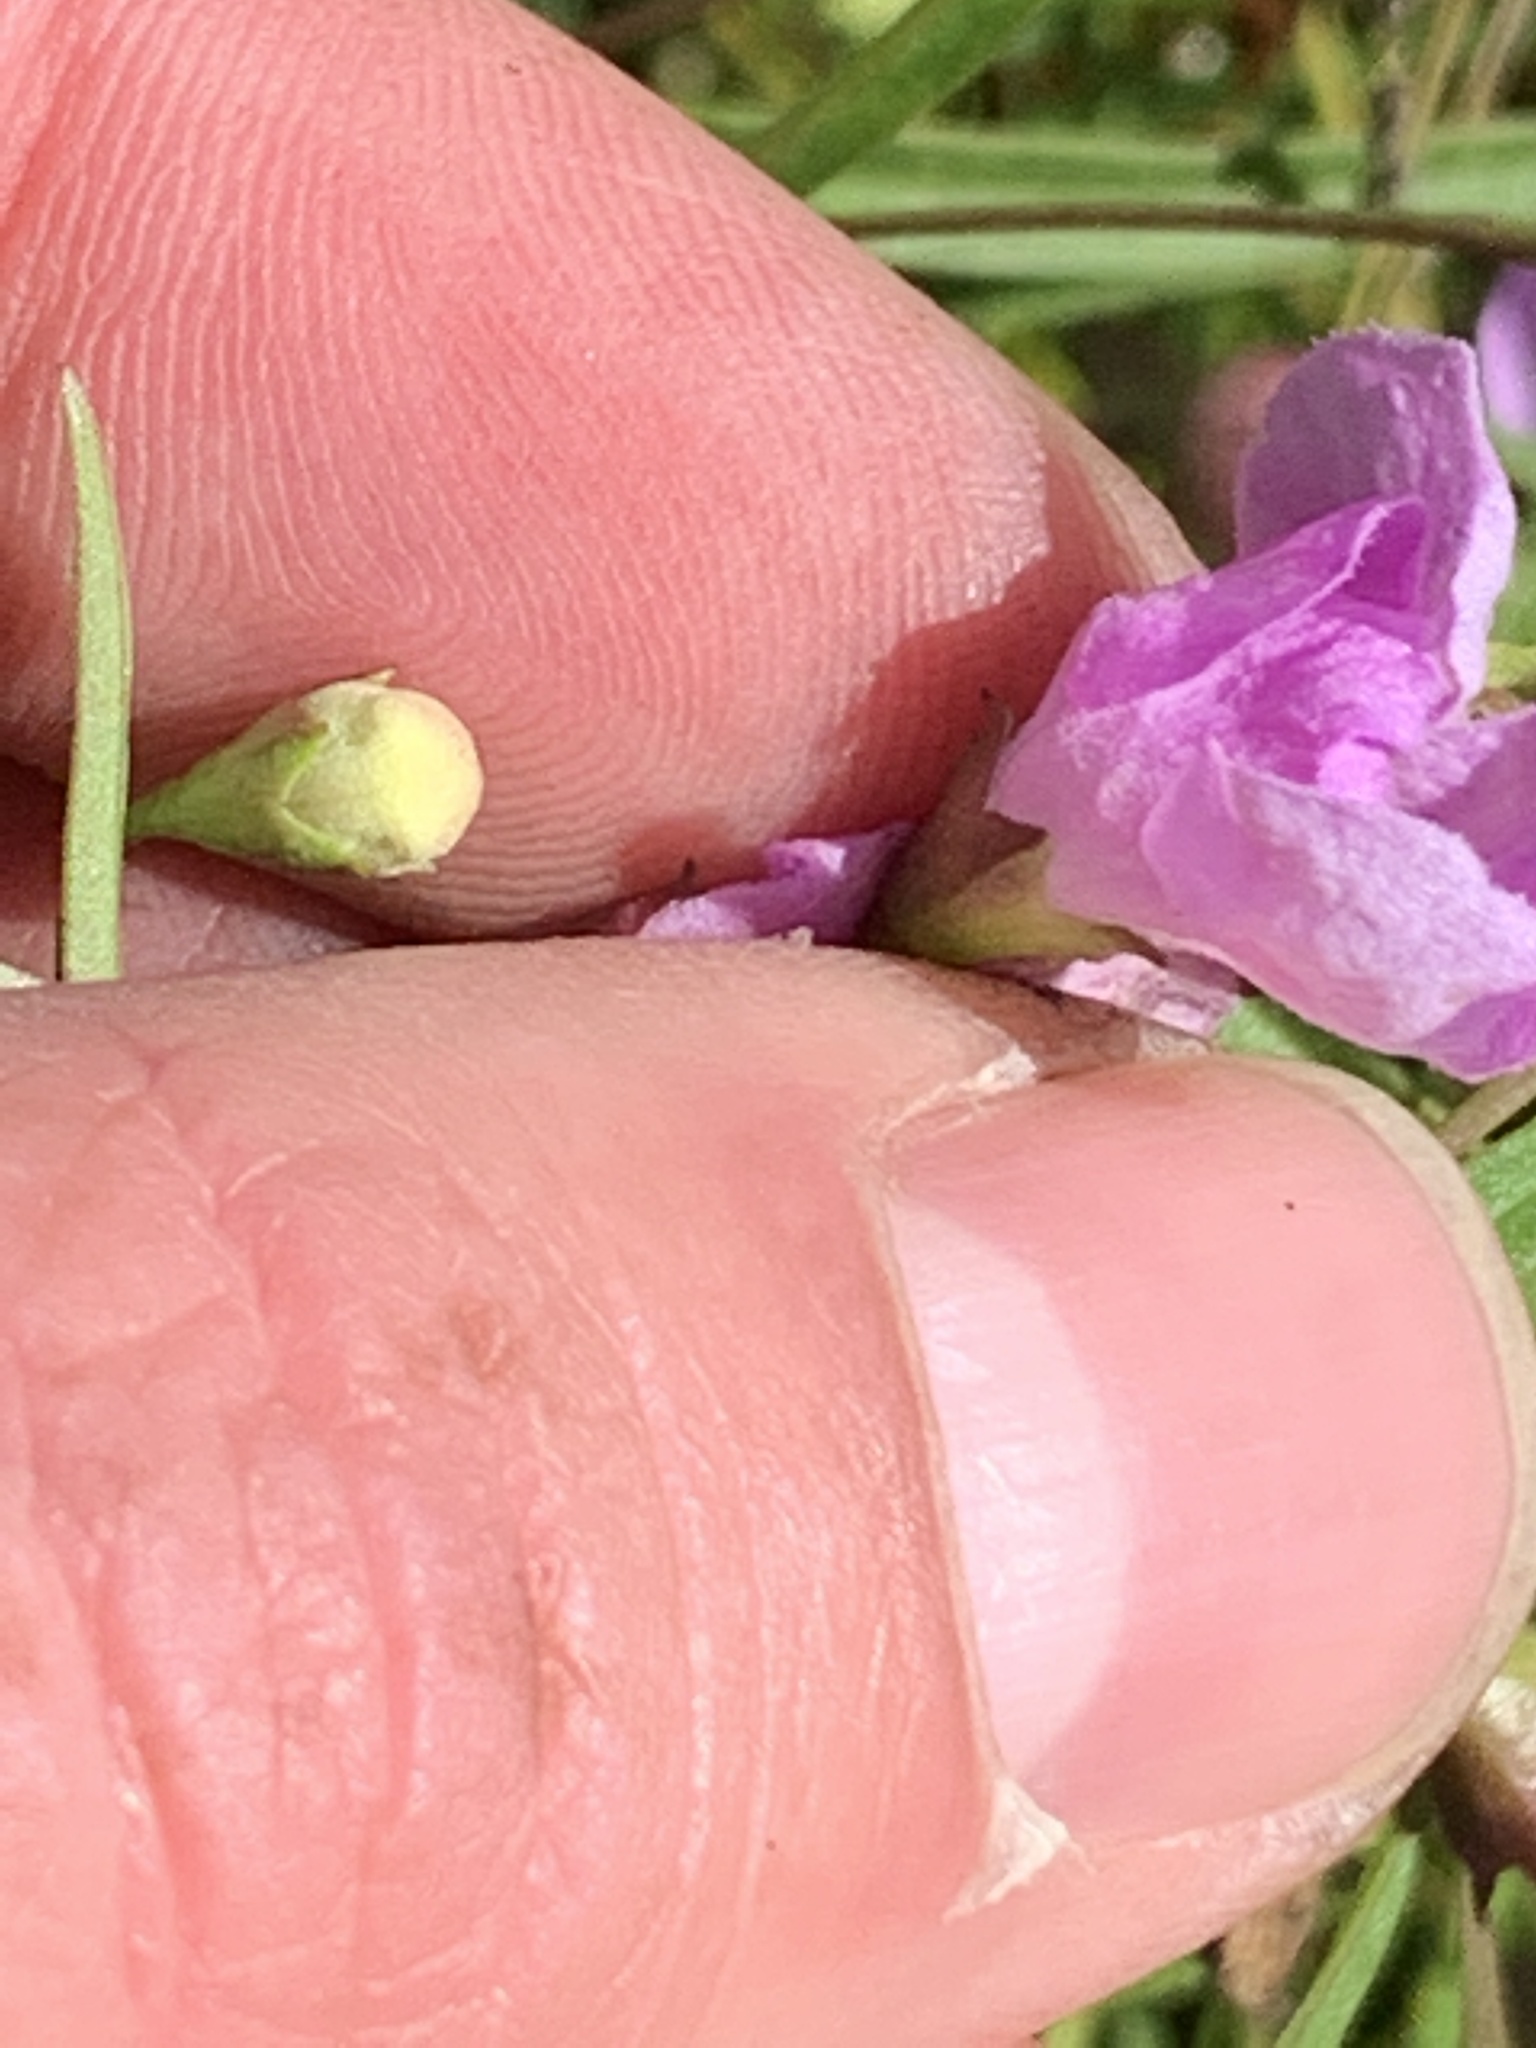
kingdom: Plantae
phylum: Tracheophyta
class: Magnoliopsida
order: Lamiales
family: Orobanchaceae
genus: Agalinis
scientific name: Agalinis tenuifolia
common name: Slender agalinis
